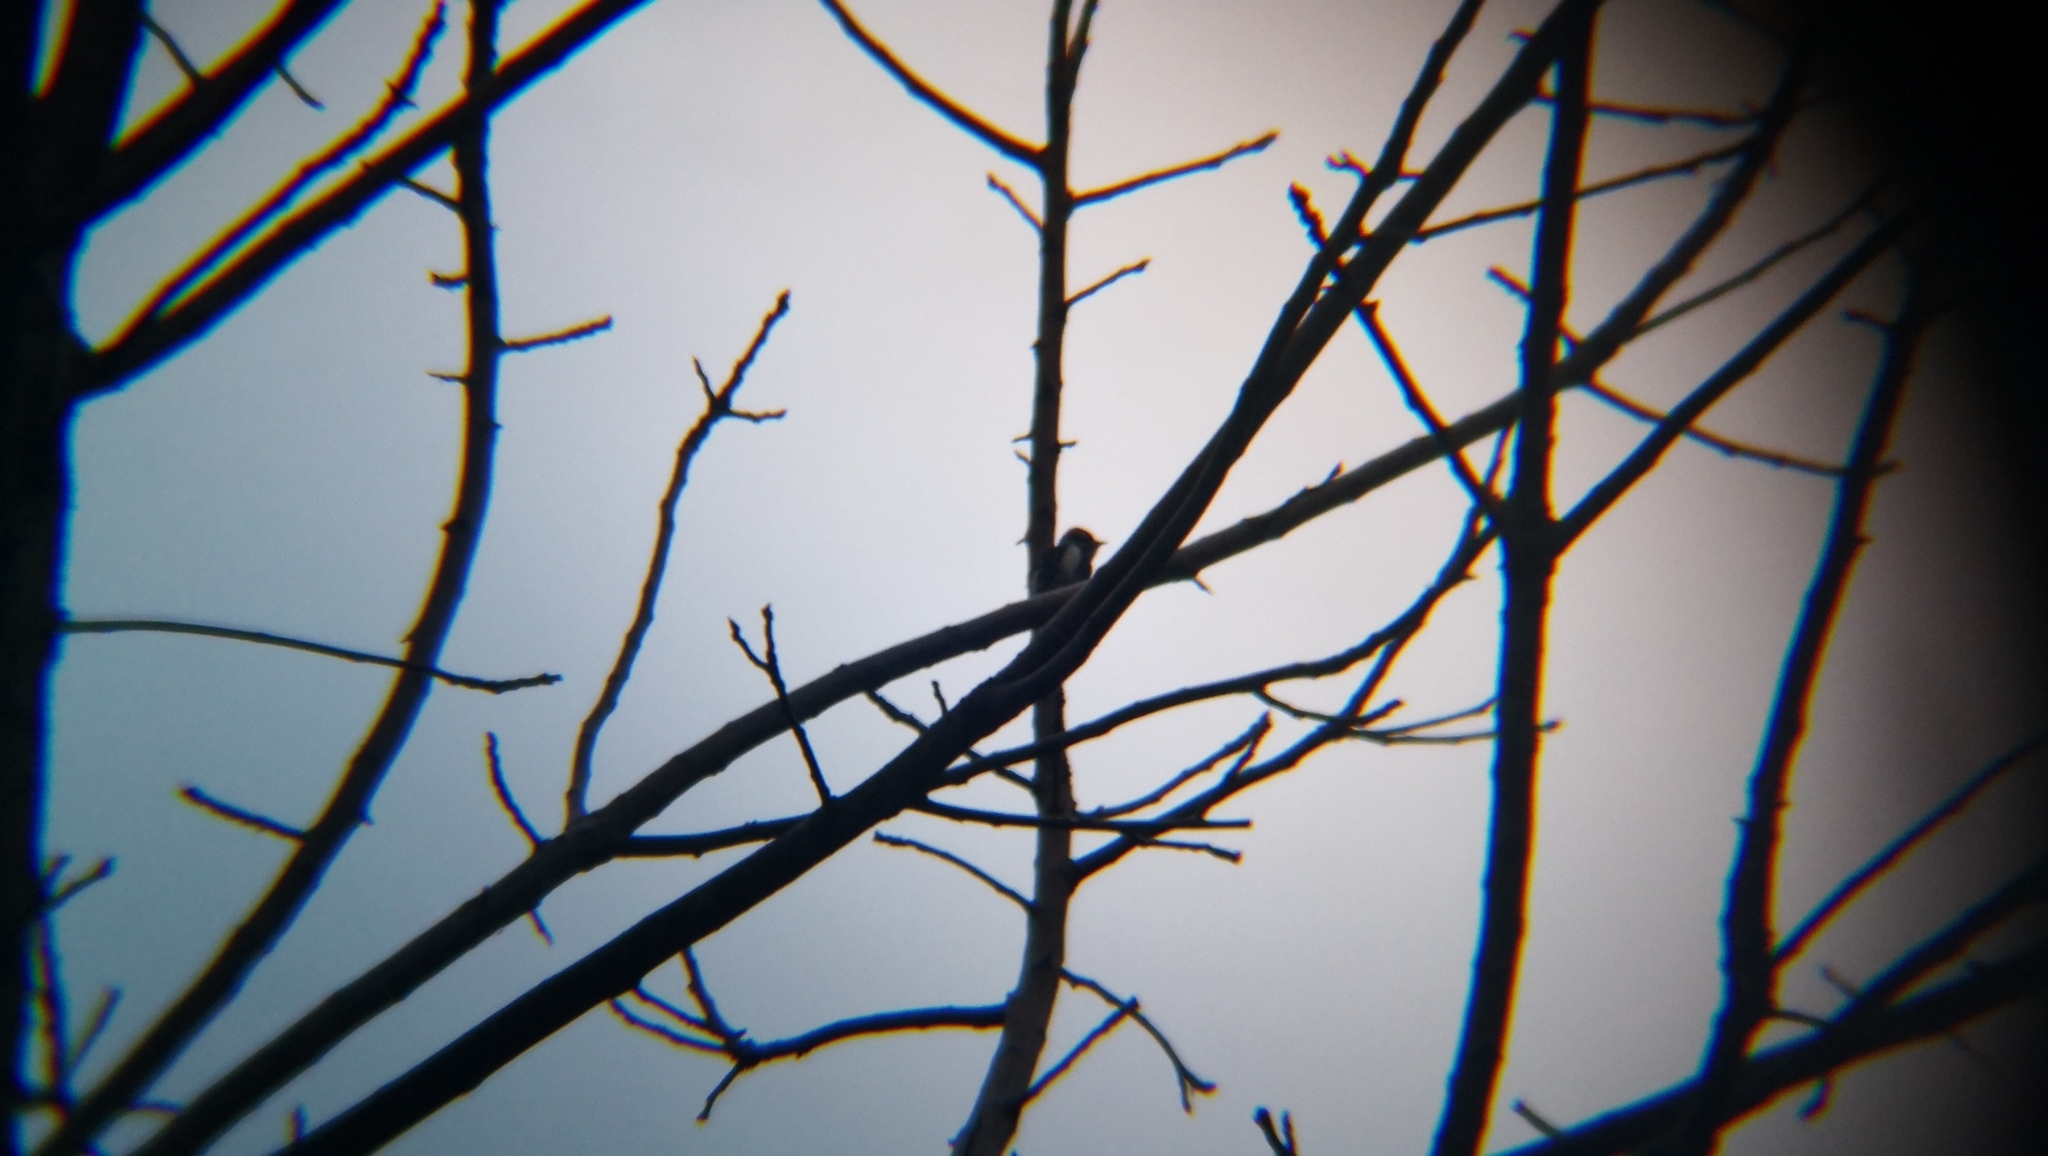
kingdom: Animalia
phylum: Chordata
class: Aves
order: Piciformes
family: Picidae
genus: Dryobates
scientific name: Dryobates pubescens
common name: Downy woodpecker
